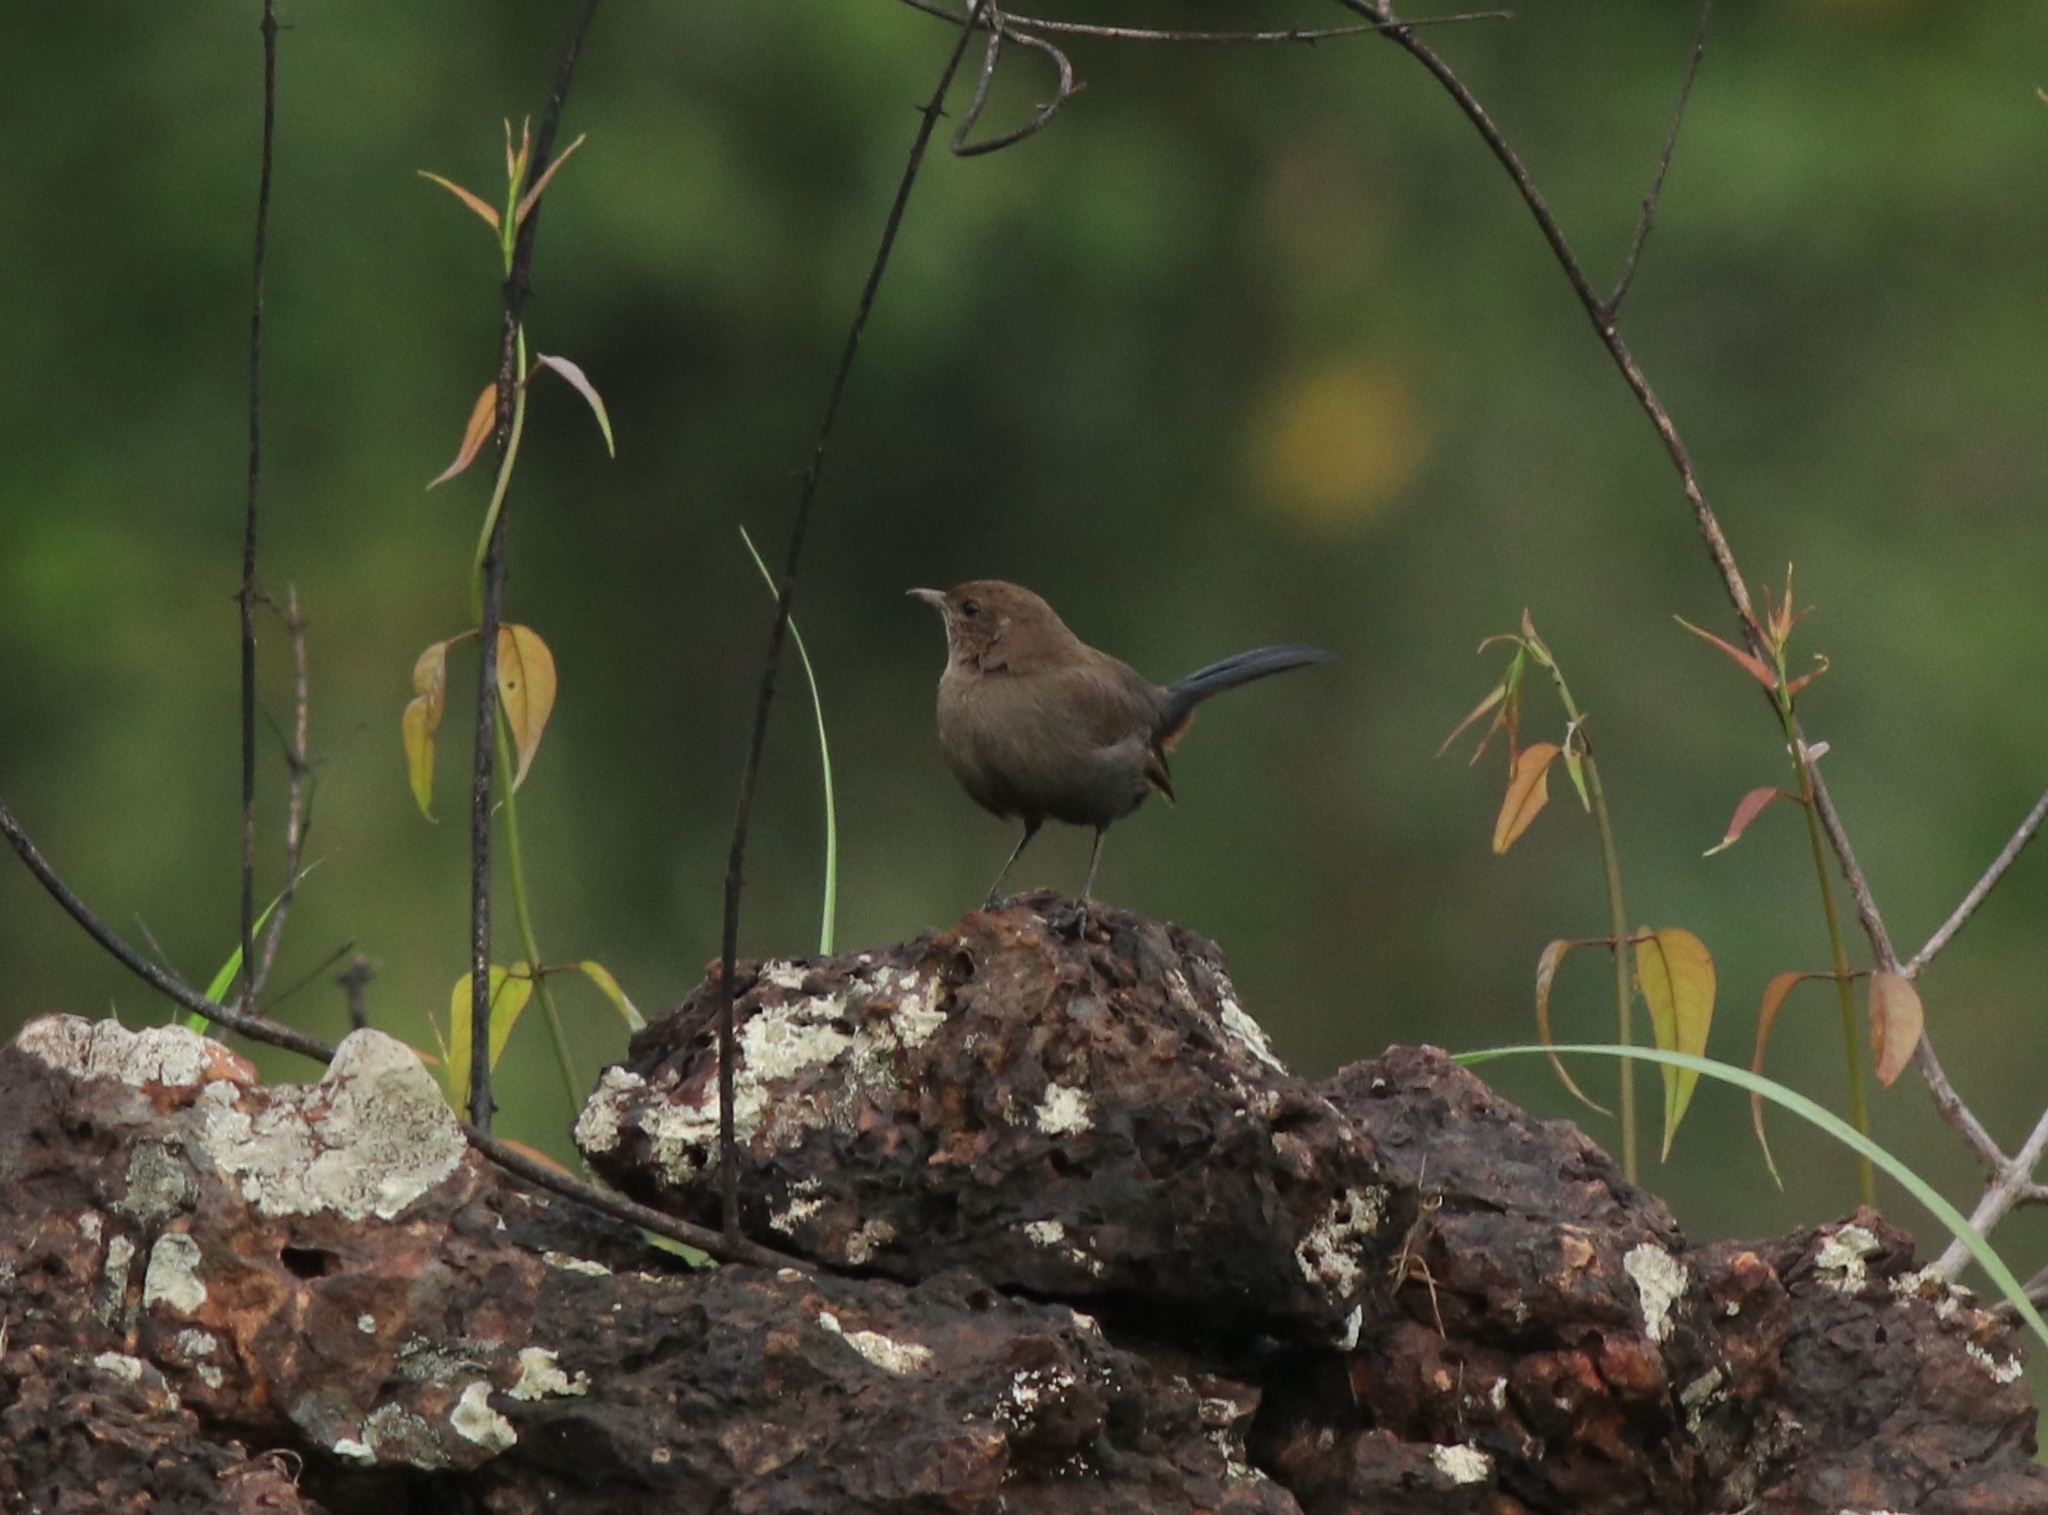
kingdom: Animalia
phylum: Chordata
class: Aves
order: Passeriformes
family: Muscicapidae
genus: Saxicoloides
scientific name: Saxicoloides fulicatus
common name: Indian robin
